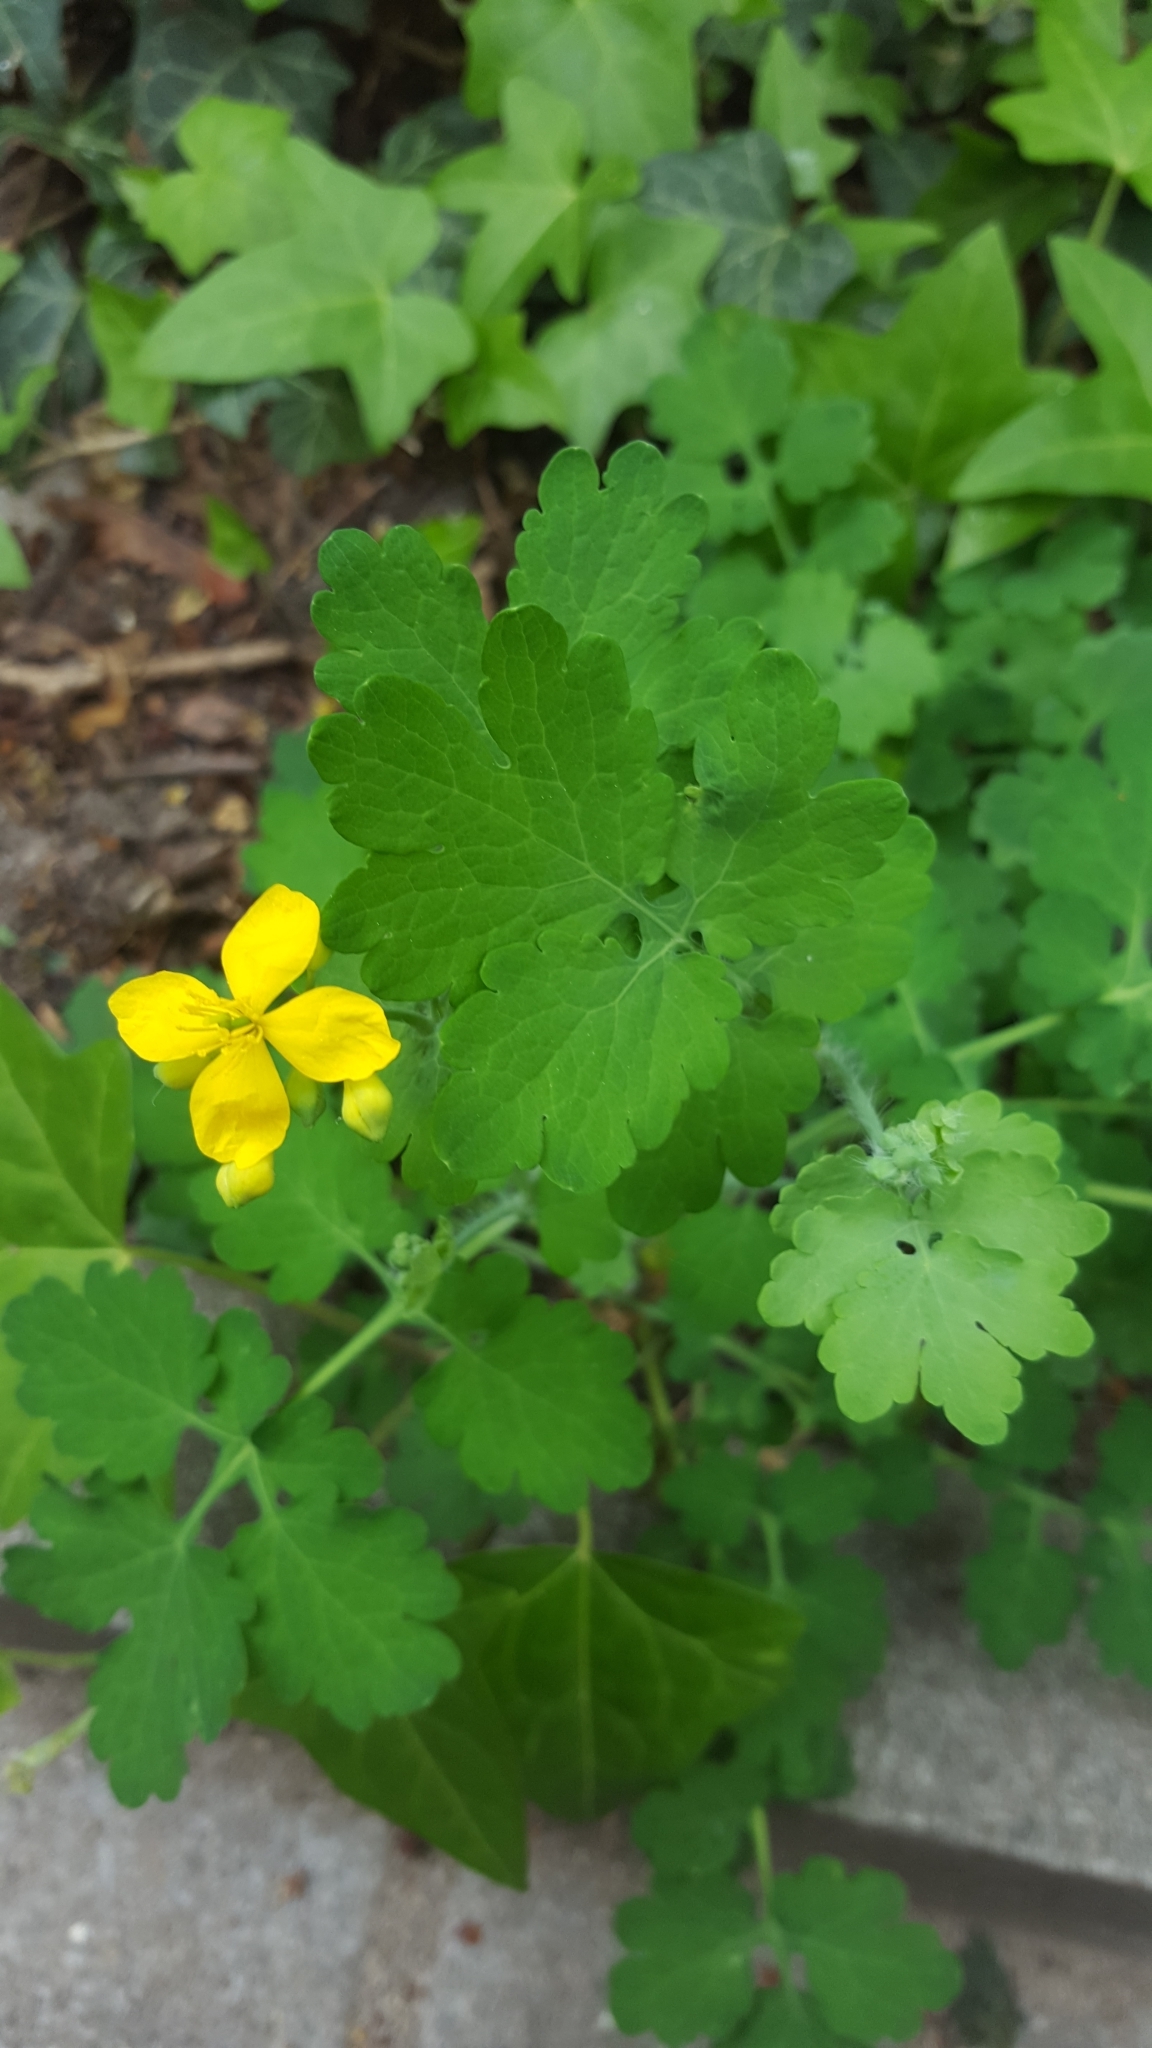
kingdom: Plantae
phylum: Tracheophyta
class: Magnoliopsida
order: Ranunculales
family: Papaveraceae
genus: Chelidonium
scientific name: Chelidonium majus
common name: Greater celandine
